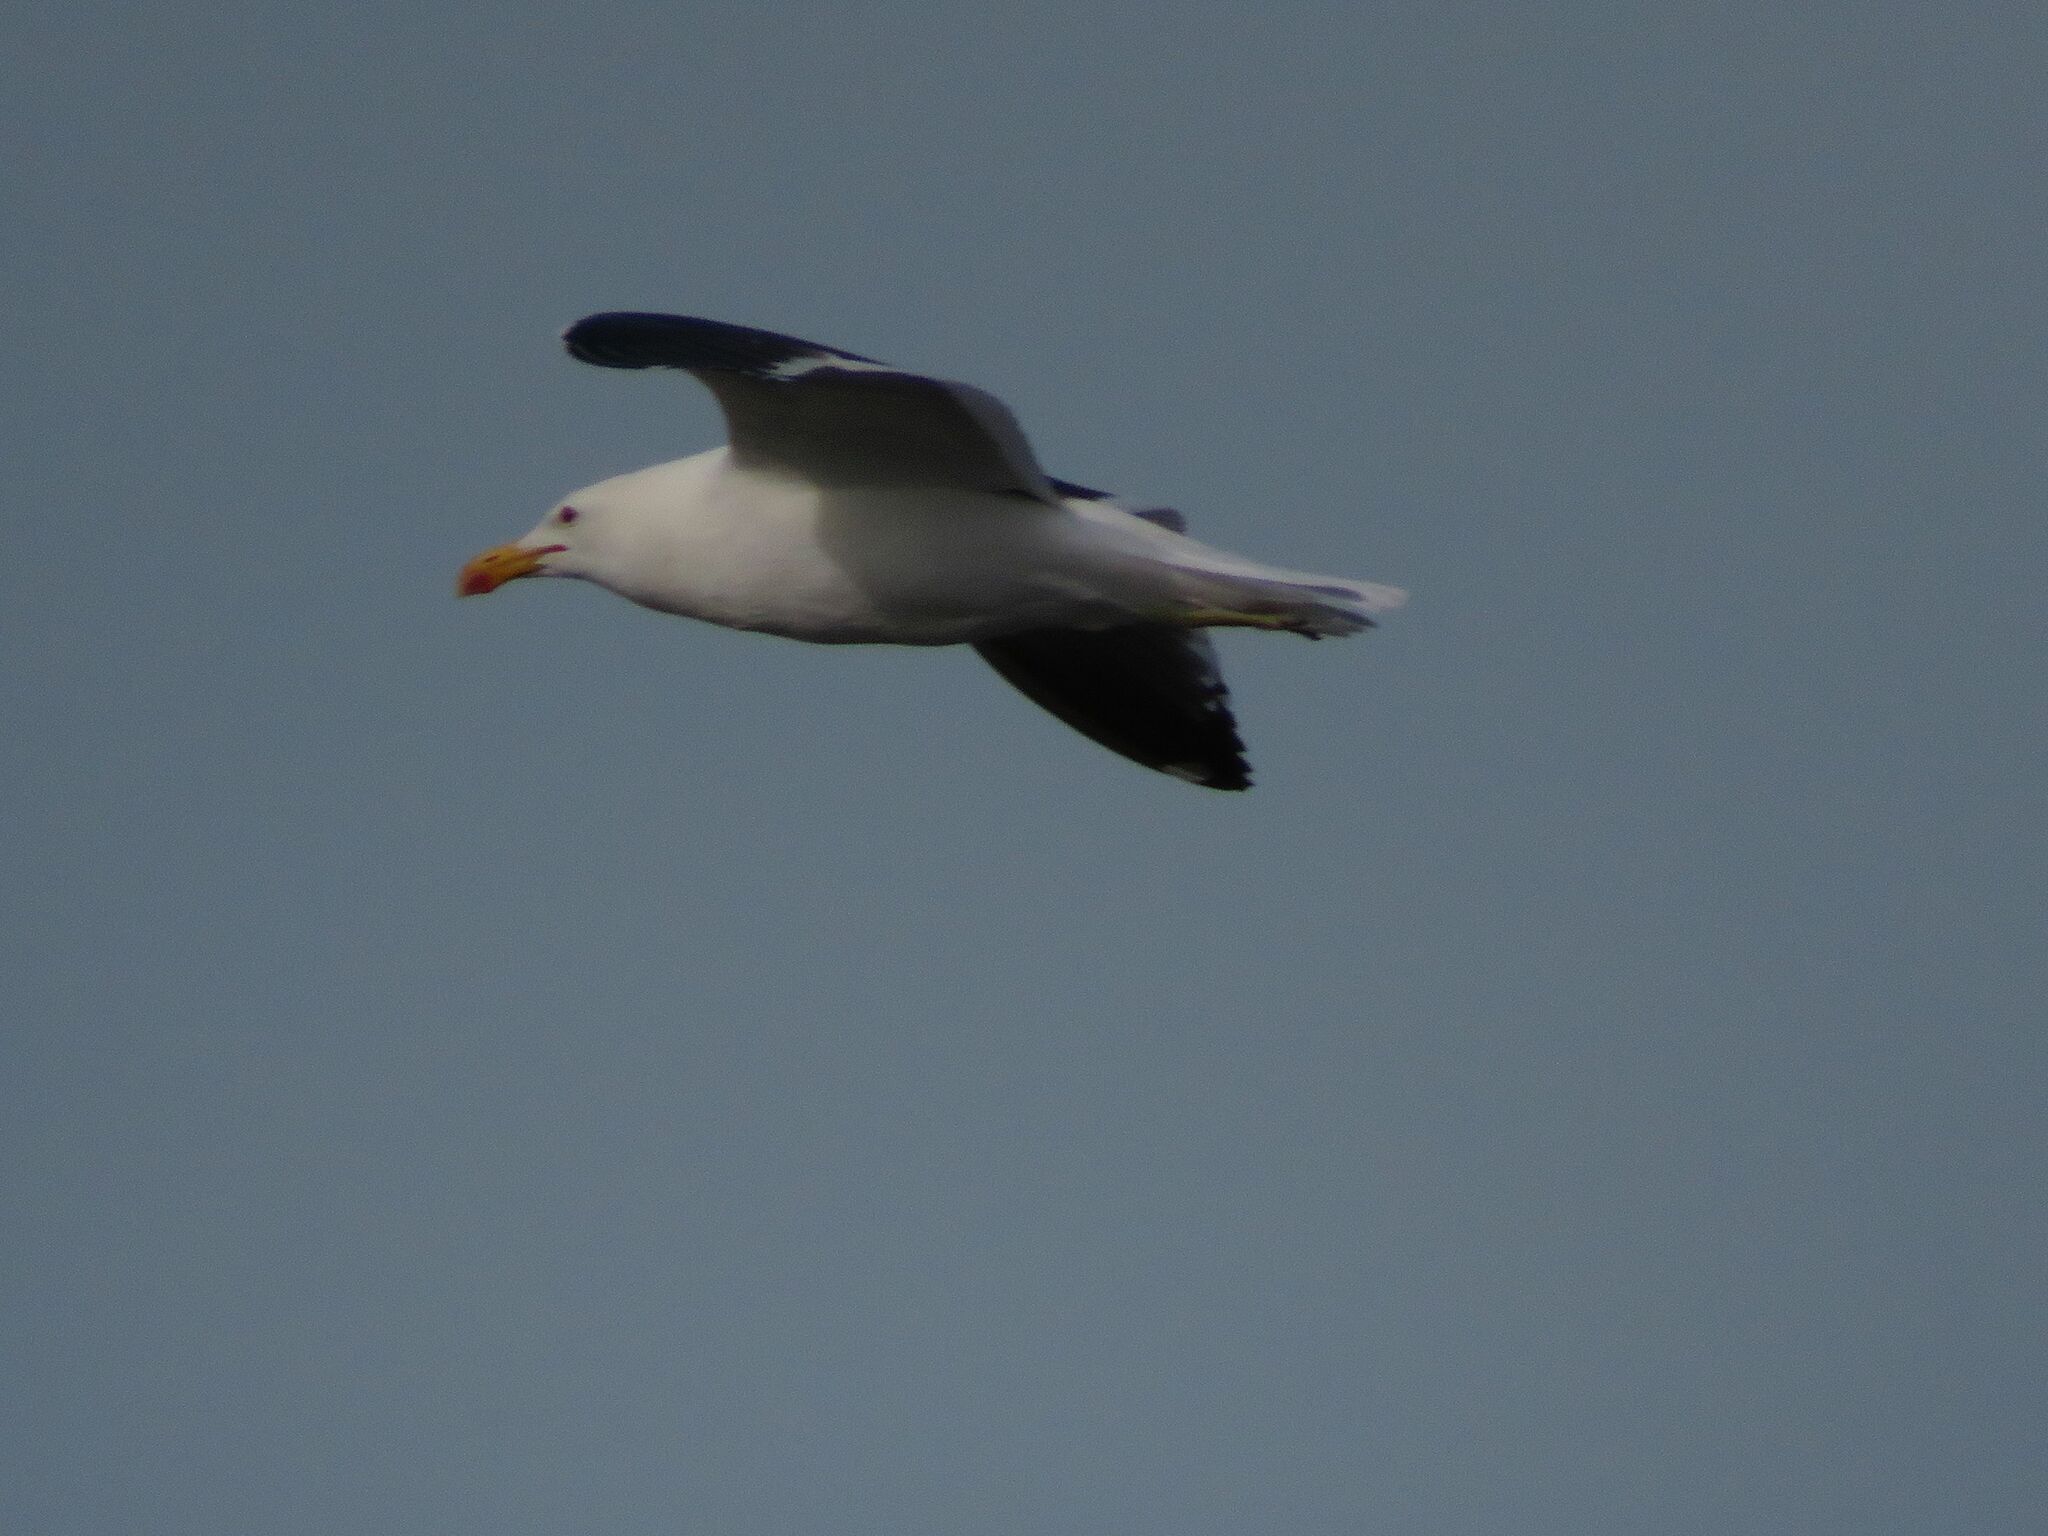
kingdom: Animalia
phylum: Chordata
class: Aves
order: Charadriiformes
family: Laridae
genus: Larus
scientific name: Larus dominicanus
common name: Kelp gull
